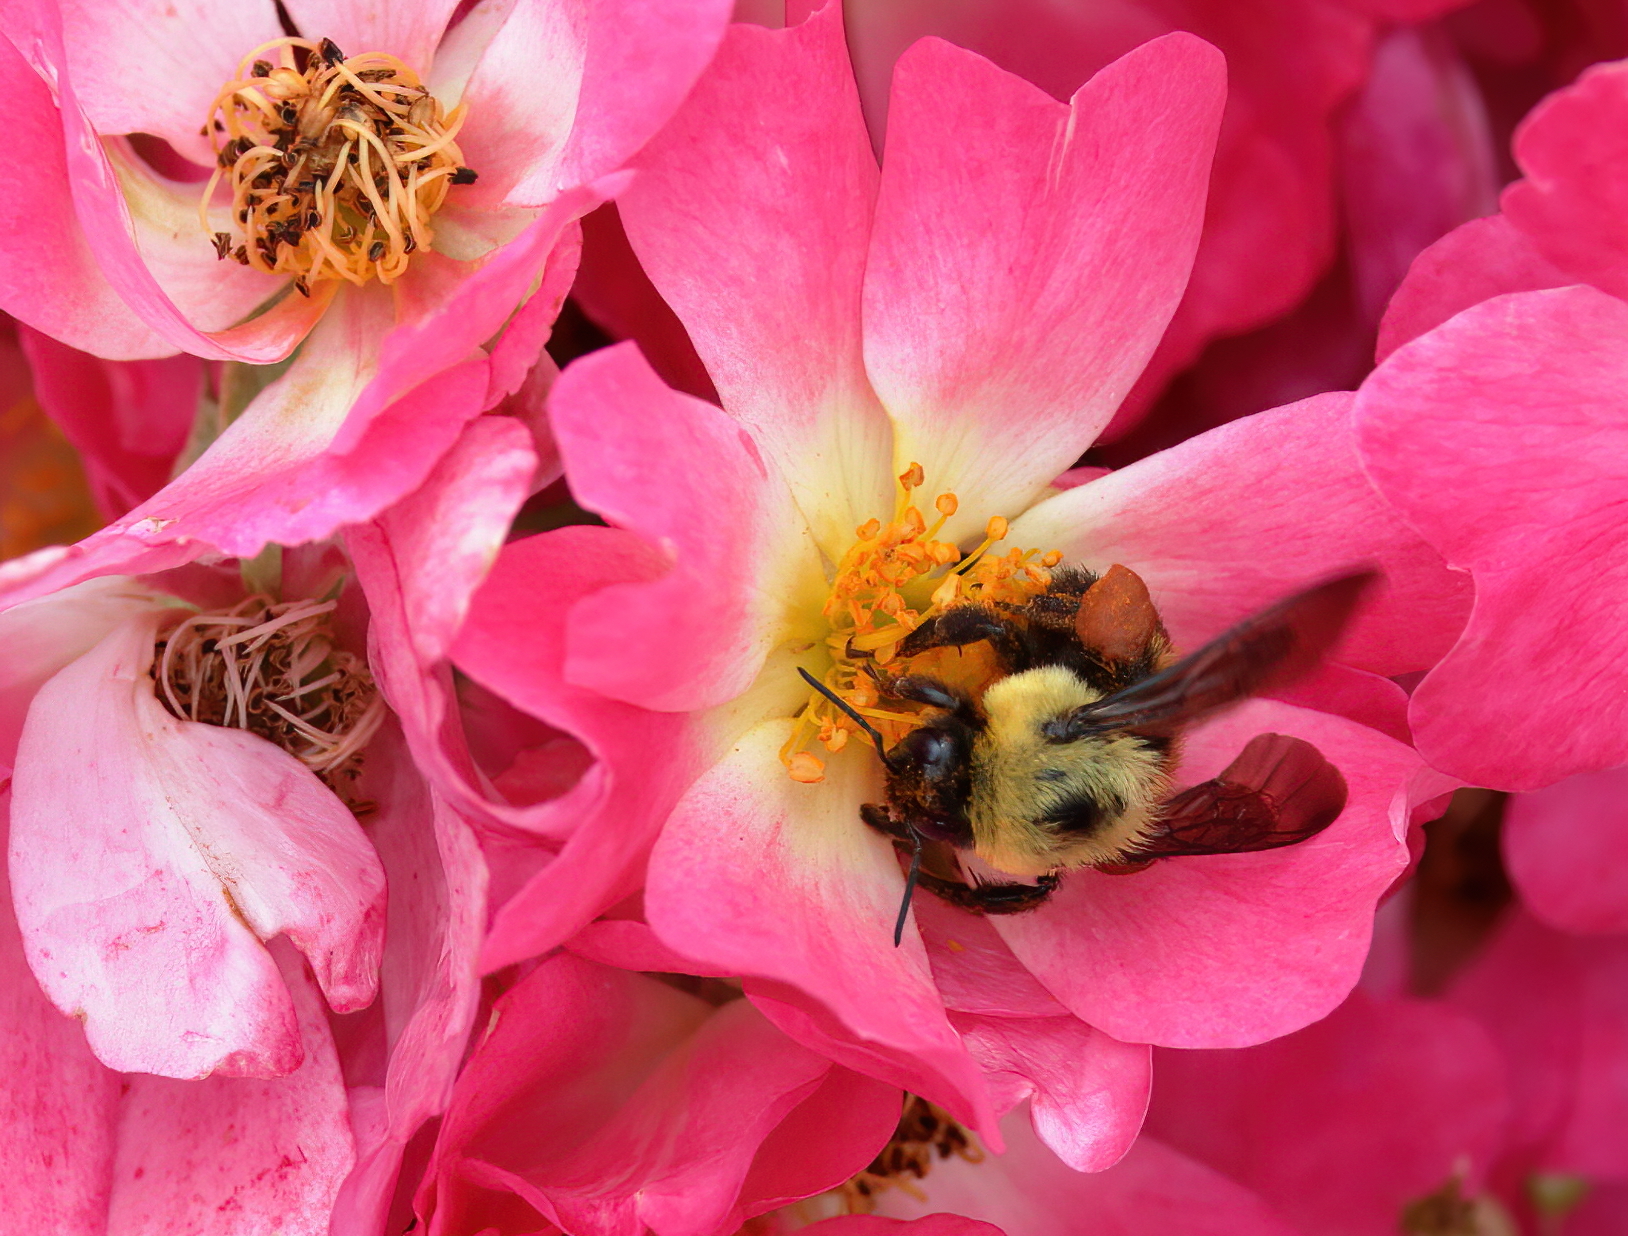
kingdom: Animalia
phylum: Arthropoda
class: Insecta
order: Hymenoptera
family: Apidae
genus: Bombus
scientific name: Bombus griseocollis
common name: Brown-belted bumble bee
